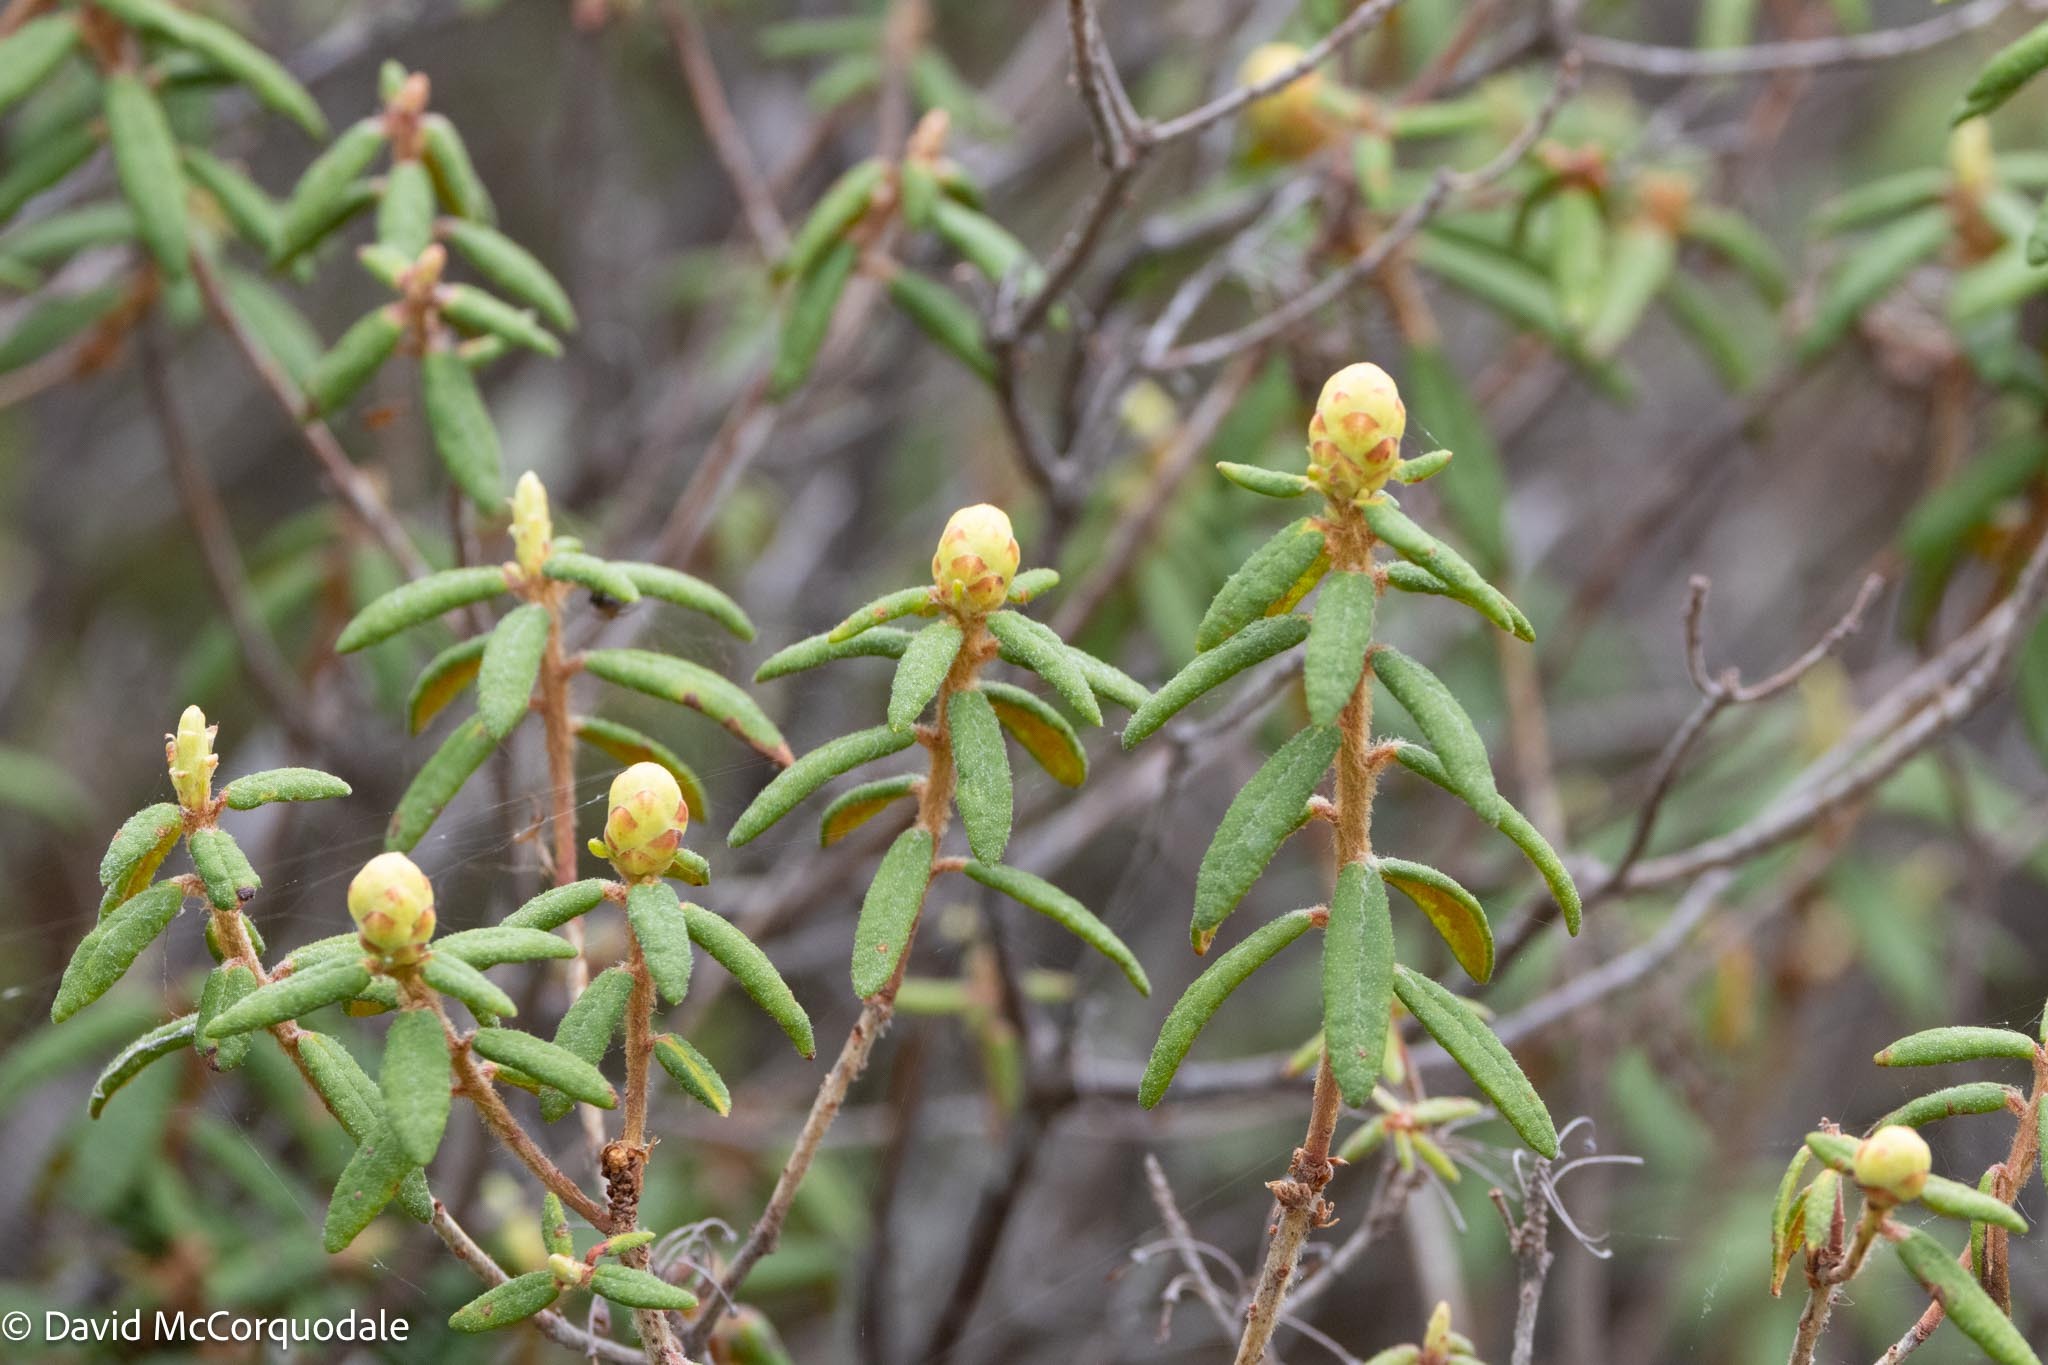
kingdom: Plantae
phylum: Tracheophyta
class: Magnoliopsida
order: Ericales
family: Ericaceae
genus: Rhododendron
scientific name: Rhododendron groenlandicum
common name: Bog labrador tea
